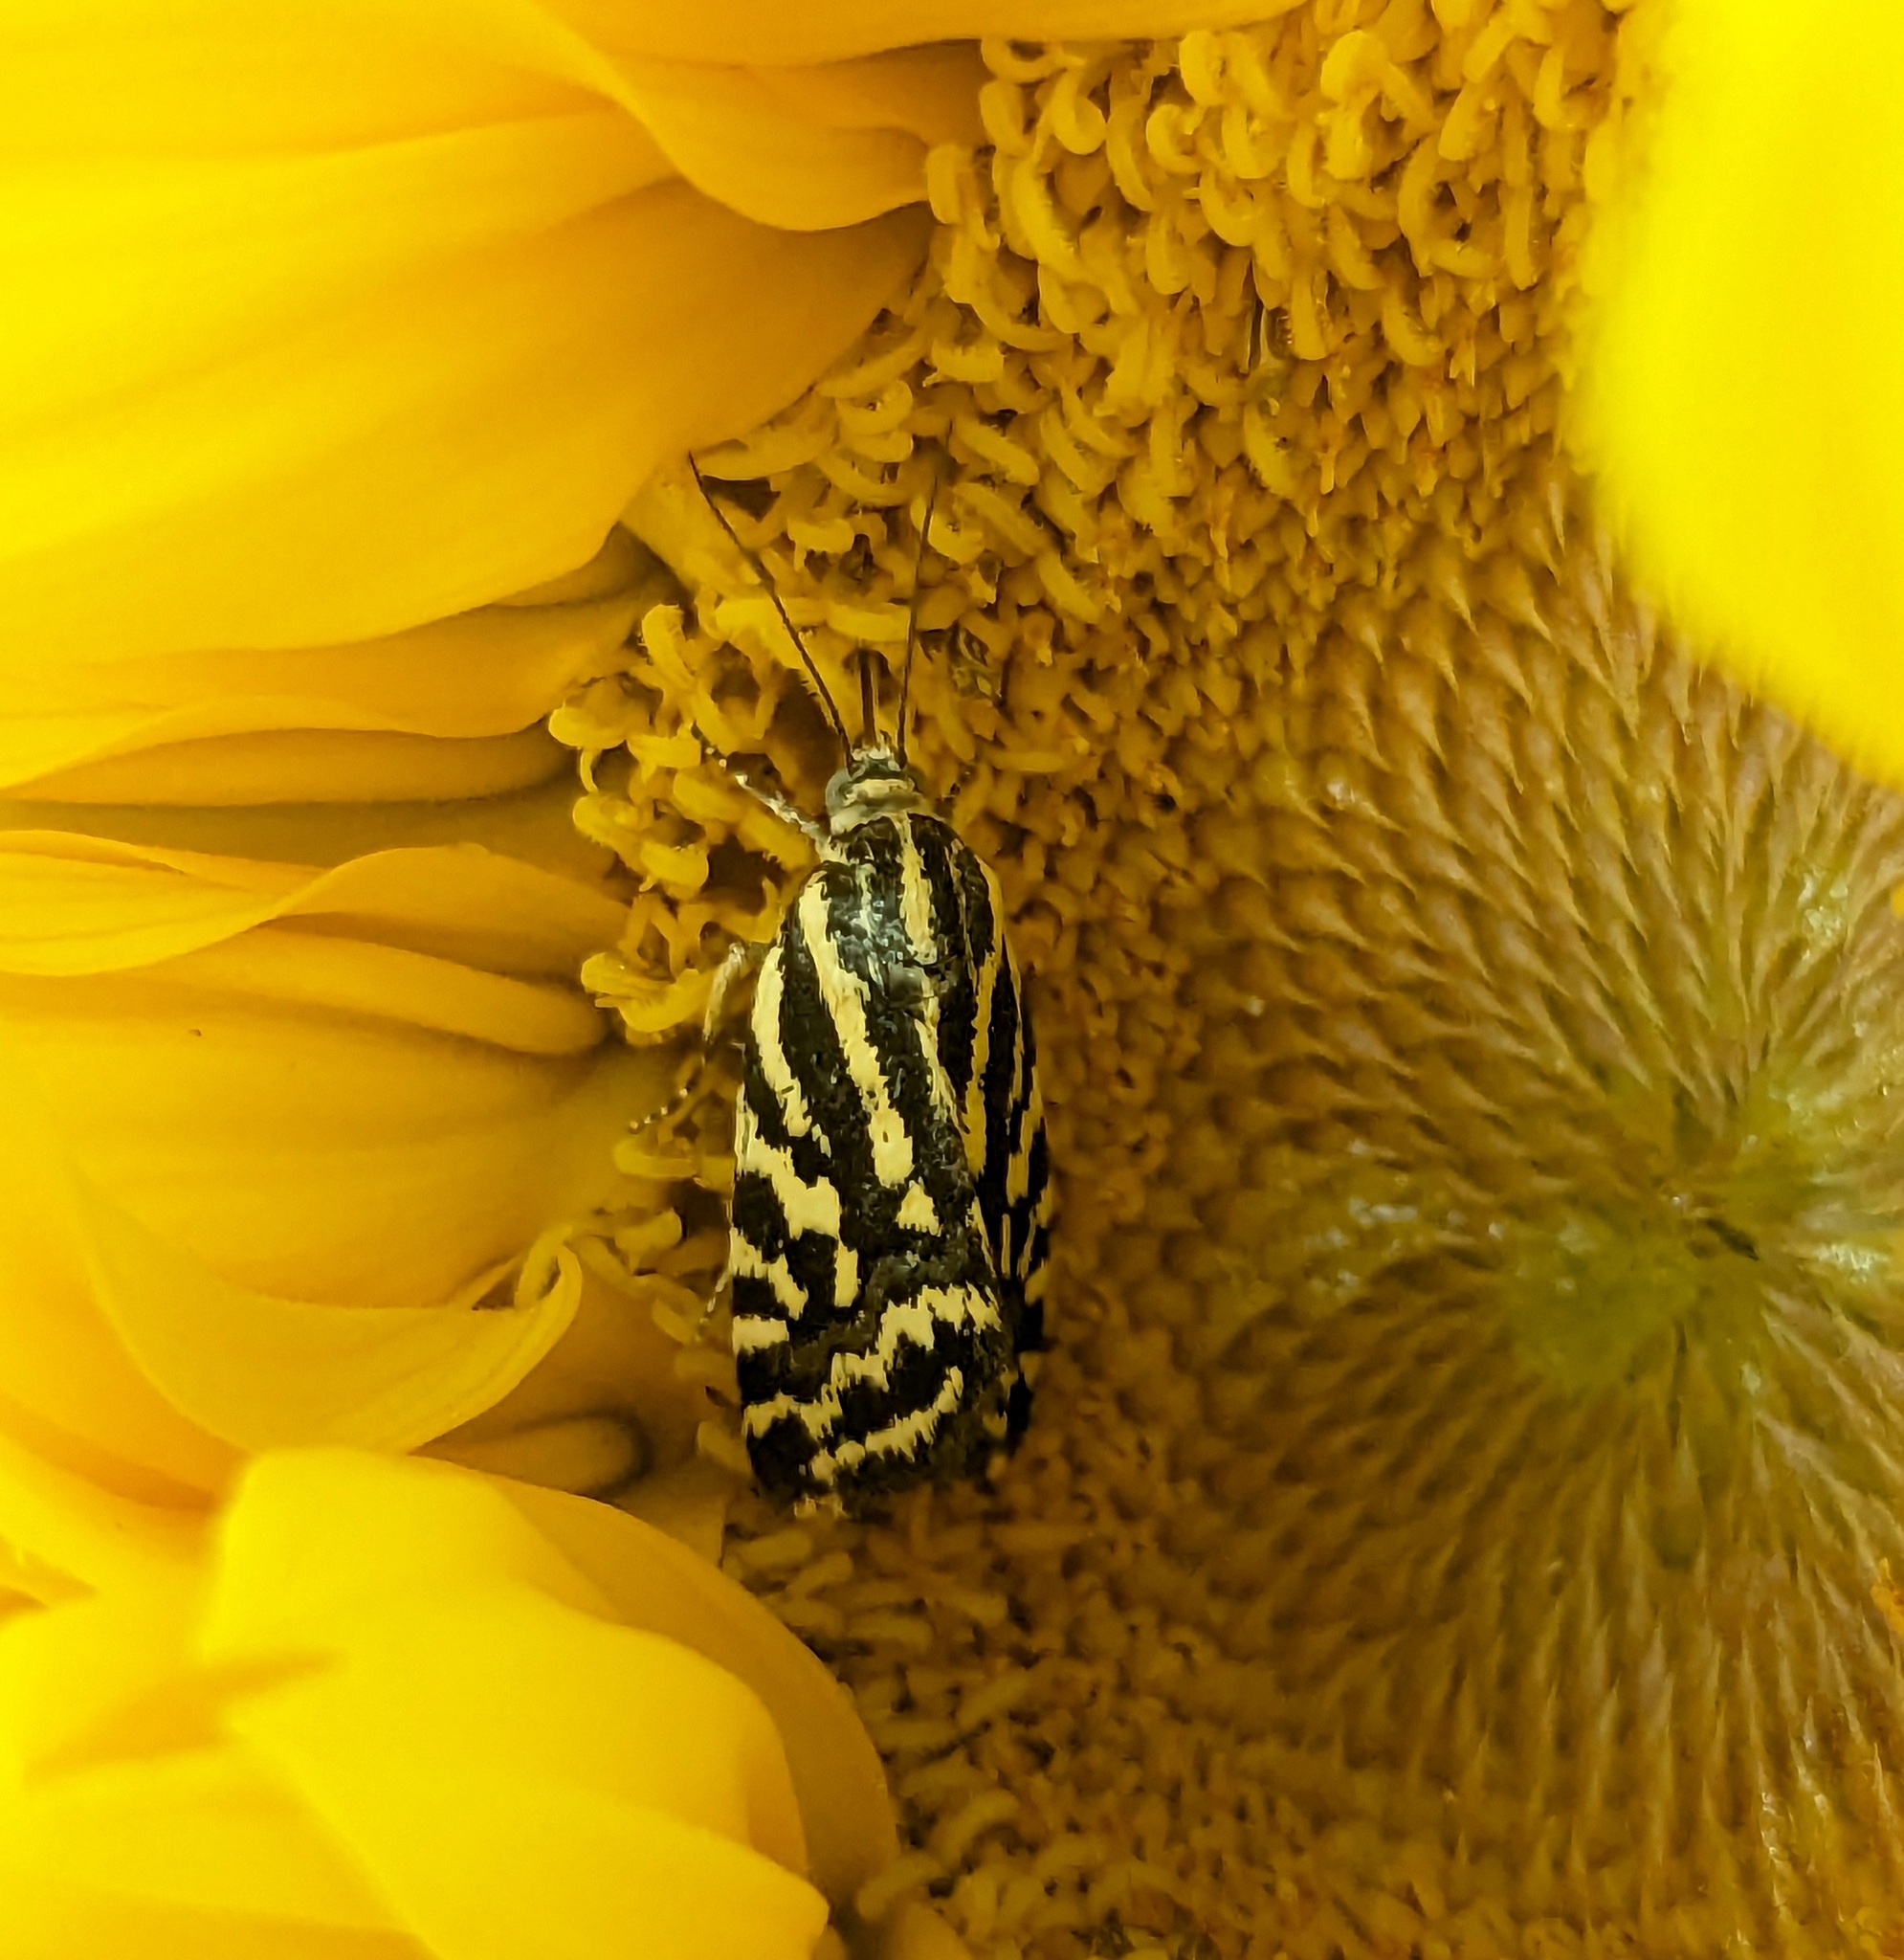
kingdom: Animalia
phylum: Arthropoda
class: Insecta
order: Lepidoptera
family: Noctuidae
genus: Acontia
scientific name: Acontia trabealis
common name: Spotted sulphur
